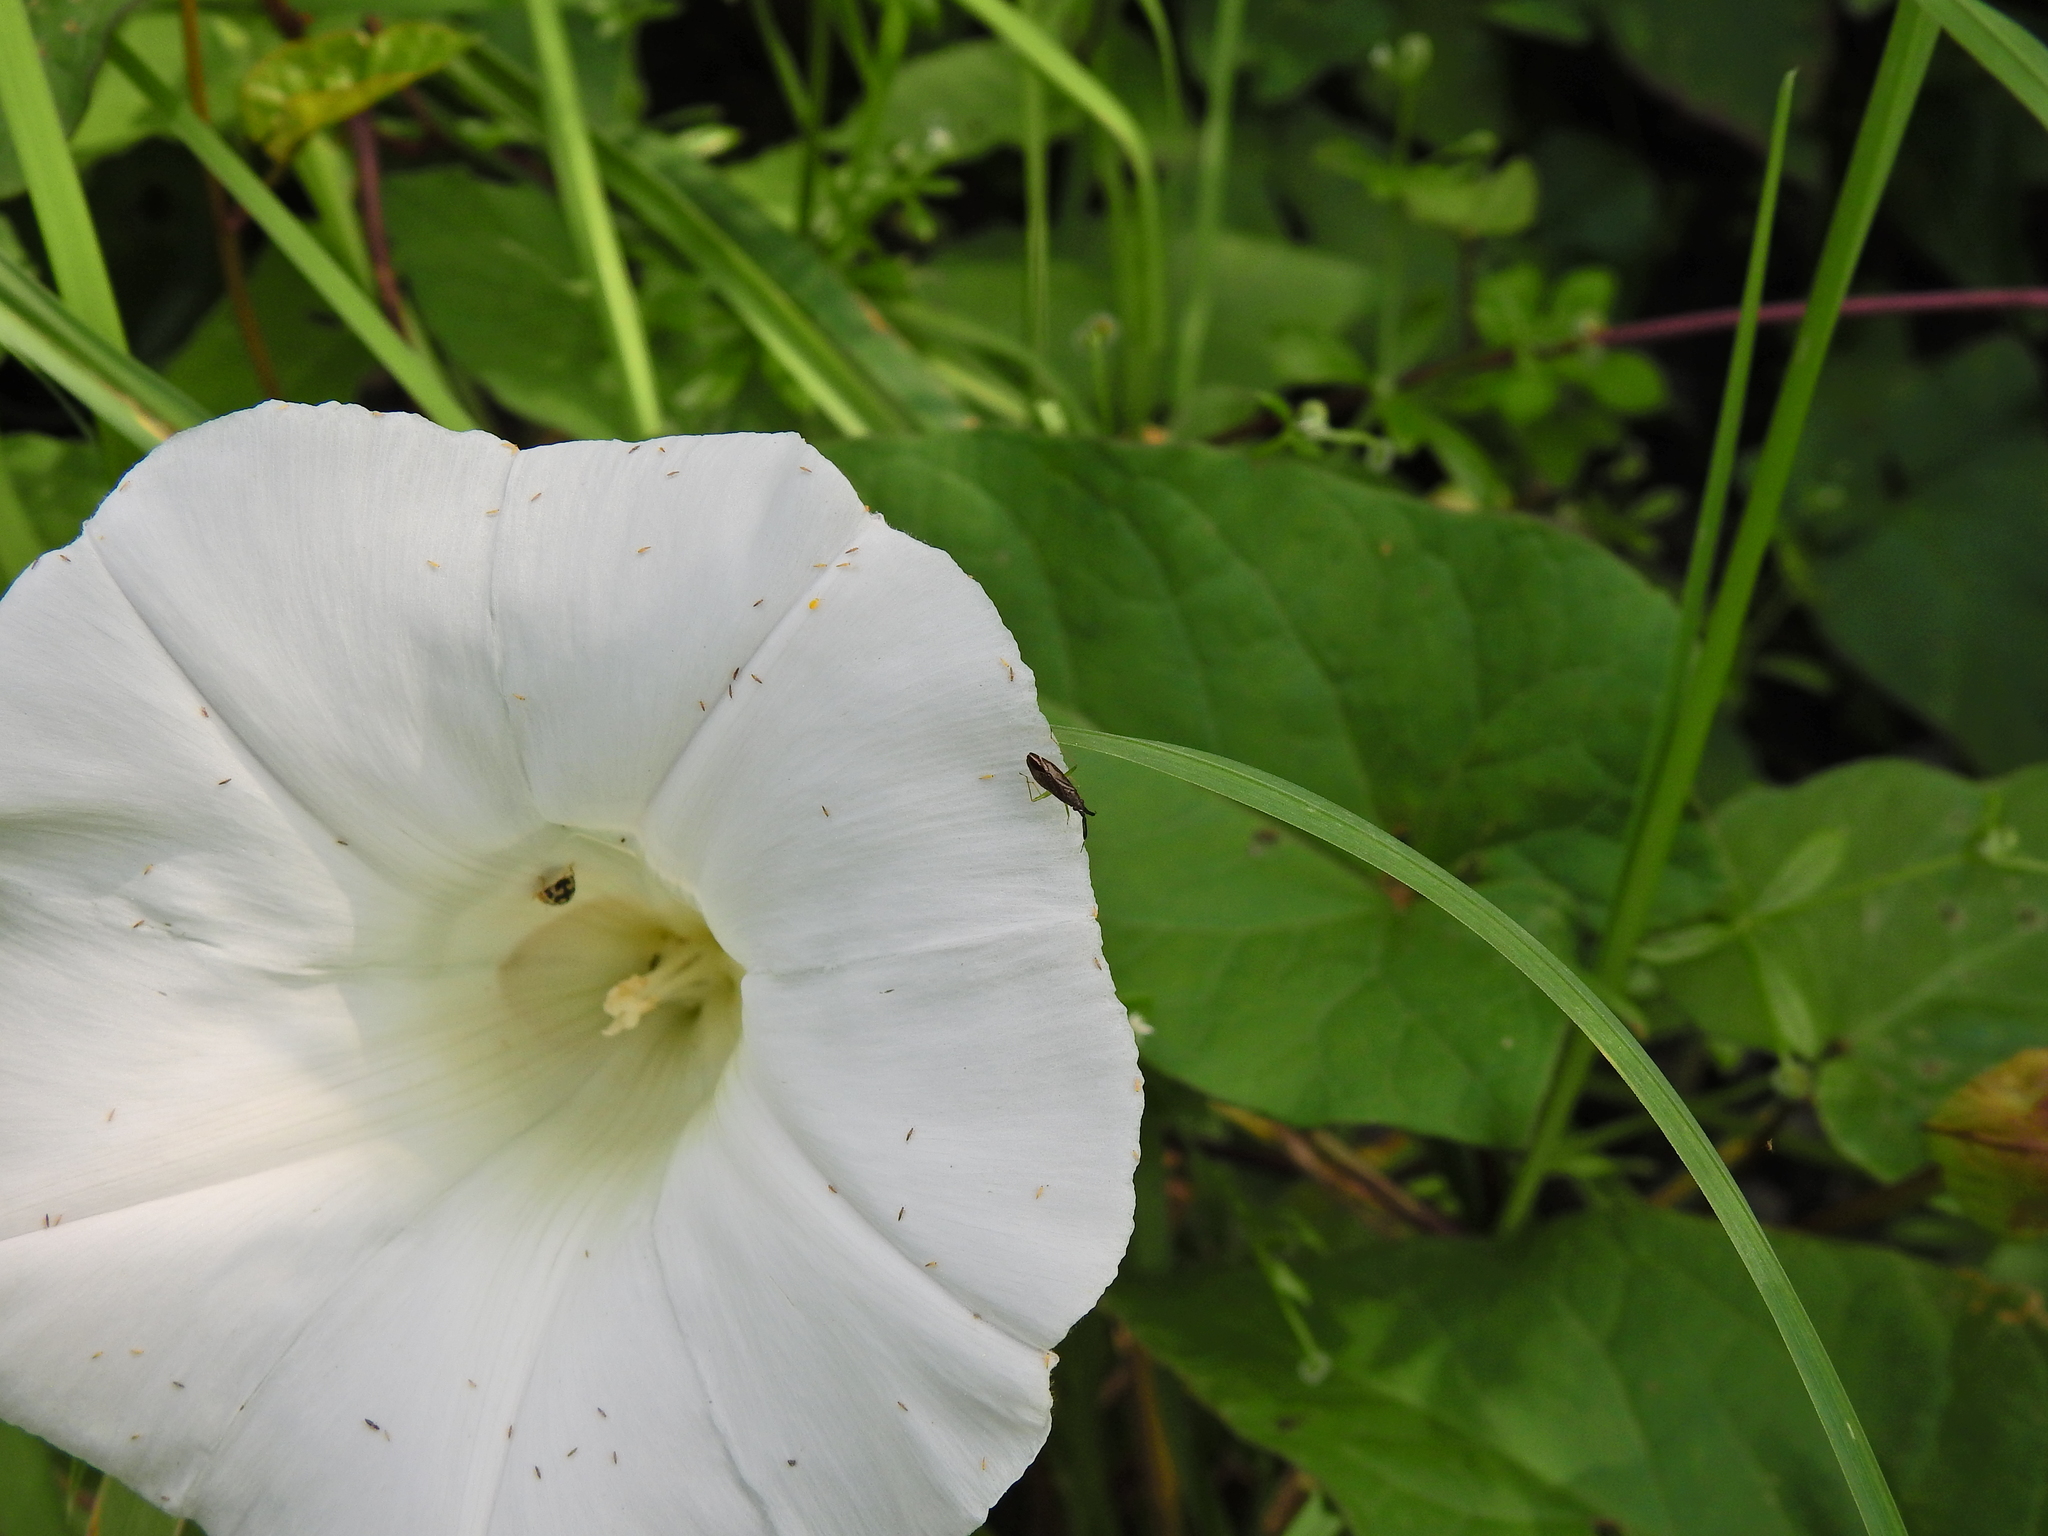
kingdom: Animalia
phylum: Arthropoda
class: Insecta
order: Hemiptera
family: Miridae
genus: Heterotoma
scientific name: Heterotoma planicornis
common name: Plant bug
